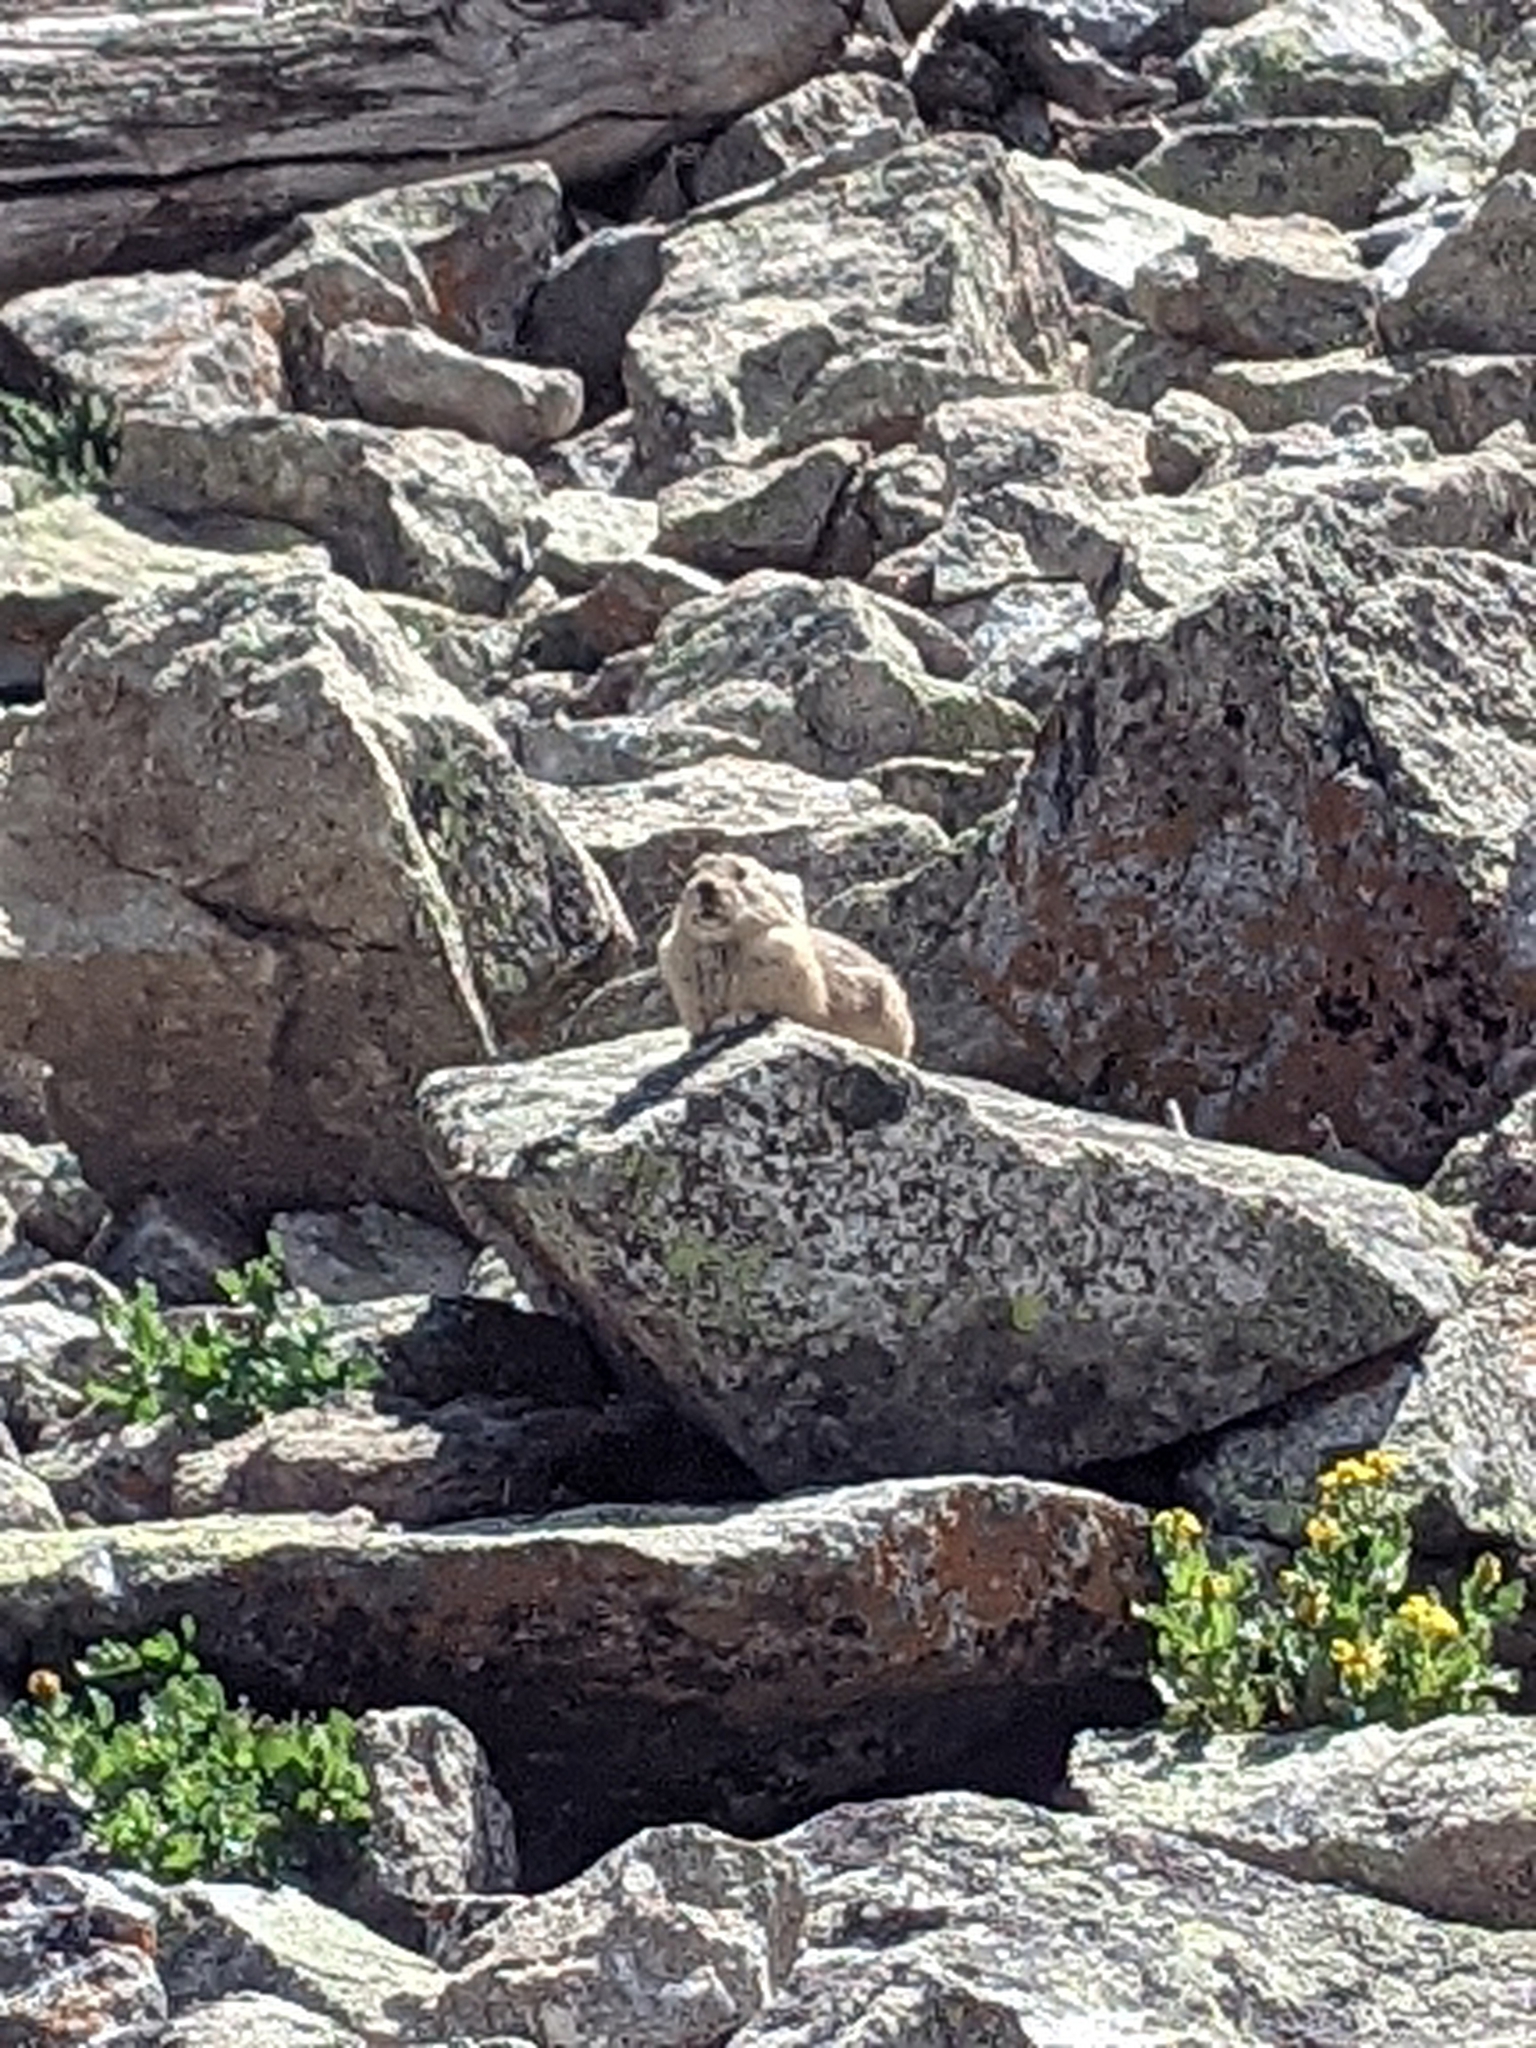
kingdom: Animalia
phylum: Chordata
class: Mammalia
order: Lagomorpha
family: Ochotonidae
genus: Ochotona
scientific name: Ochotona princeps
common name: American pika
